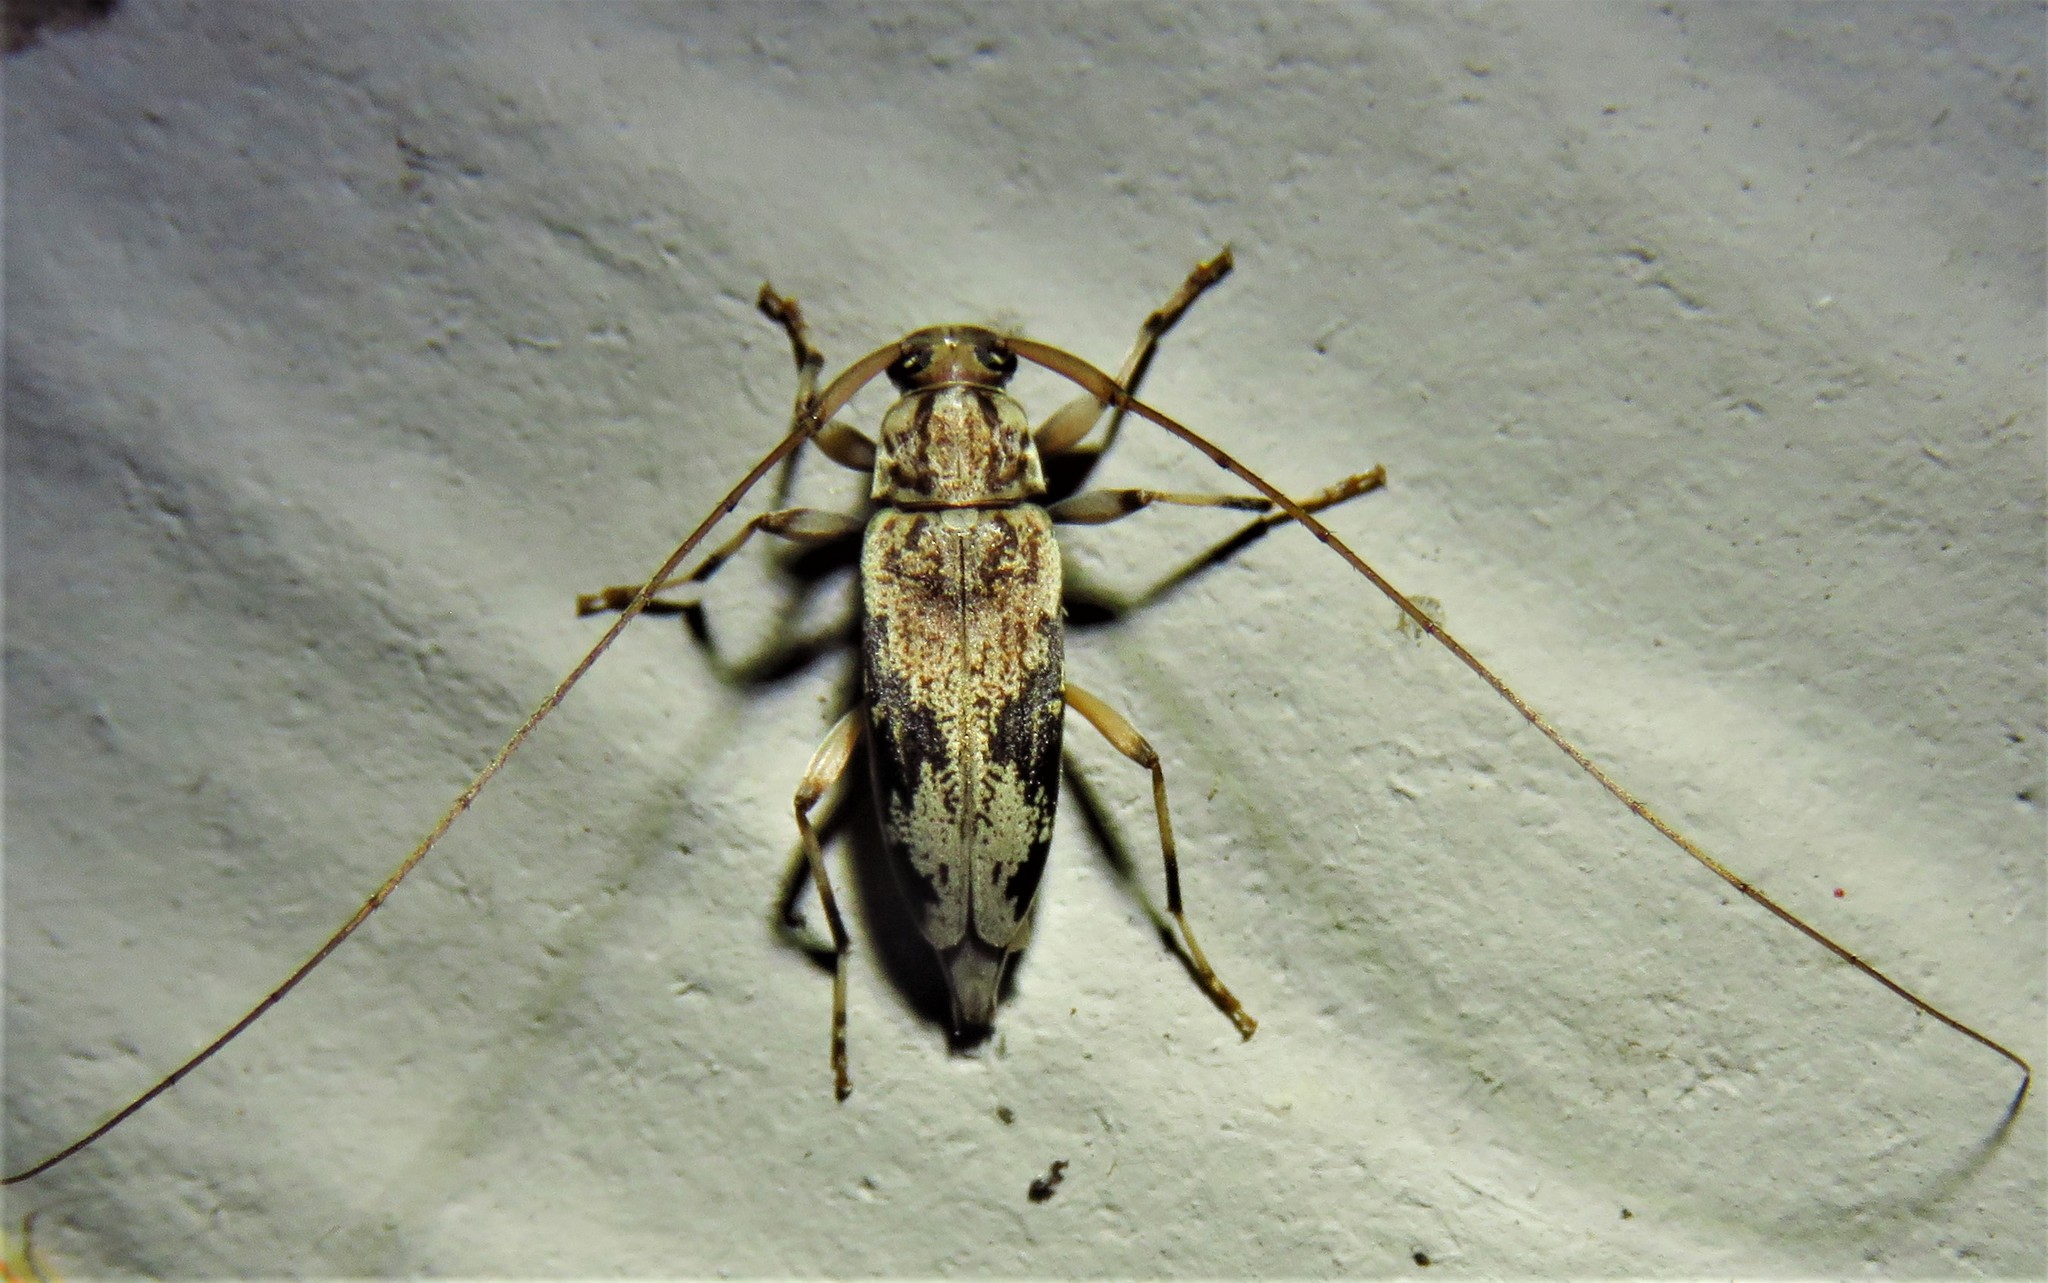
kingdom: Animalia
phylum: Arthropoda
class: Insecta
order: Coleoptera
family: Cerambycidae
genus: Lepturges
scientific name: Lepturges angulatus
